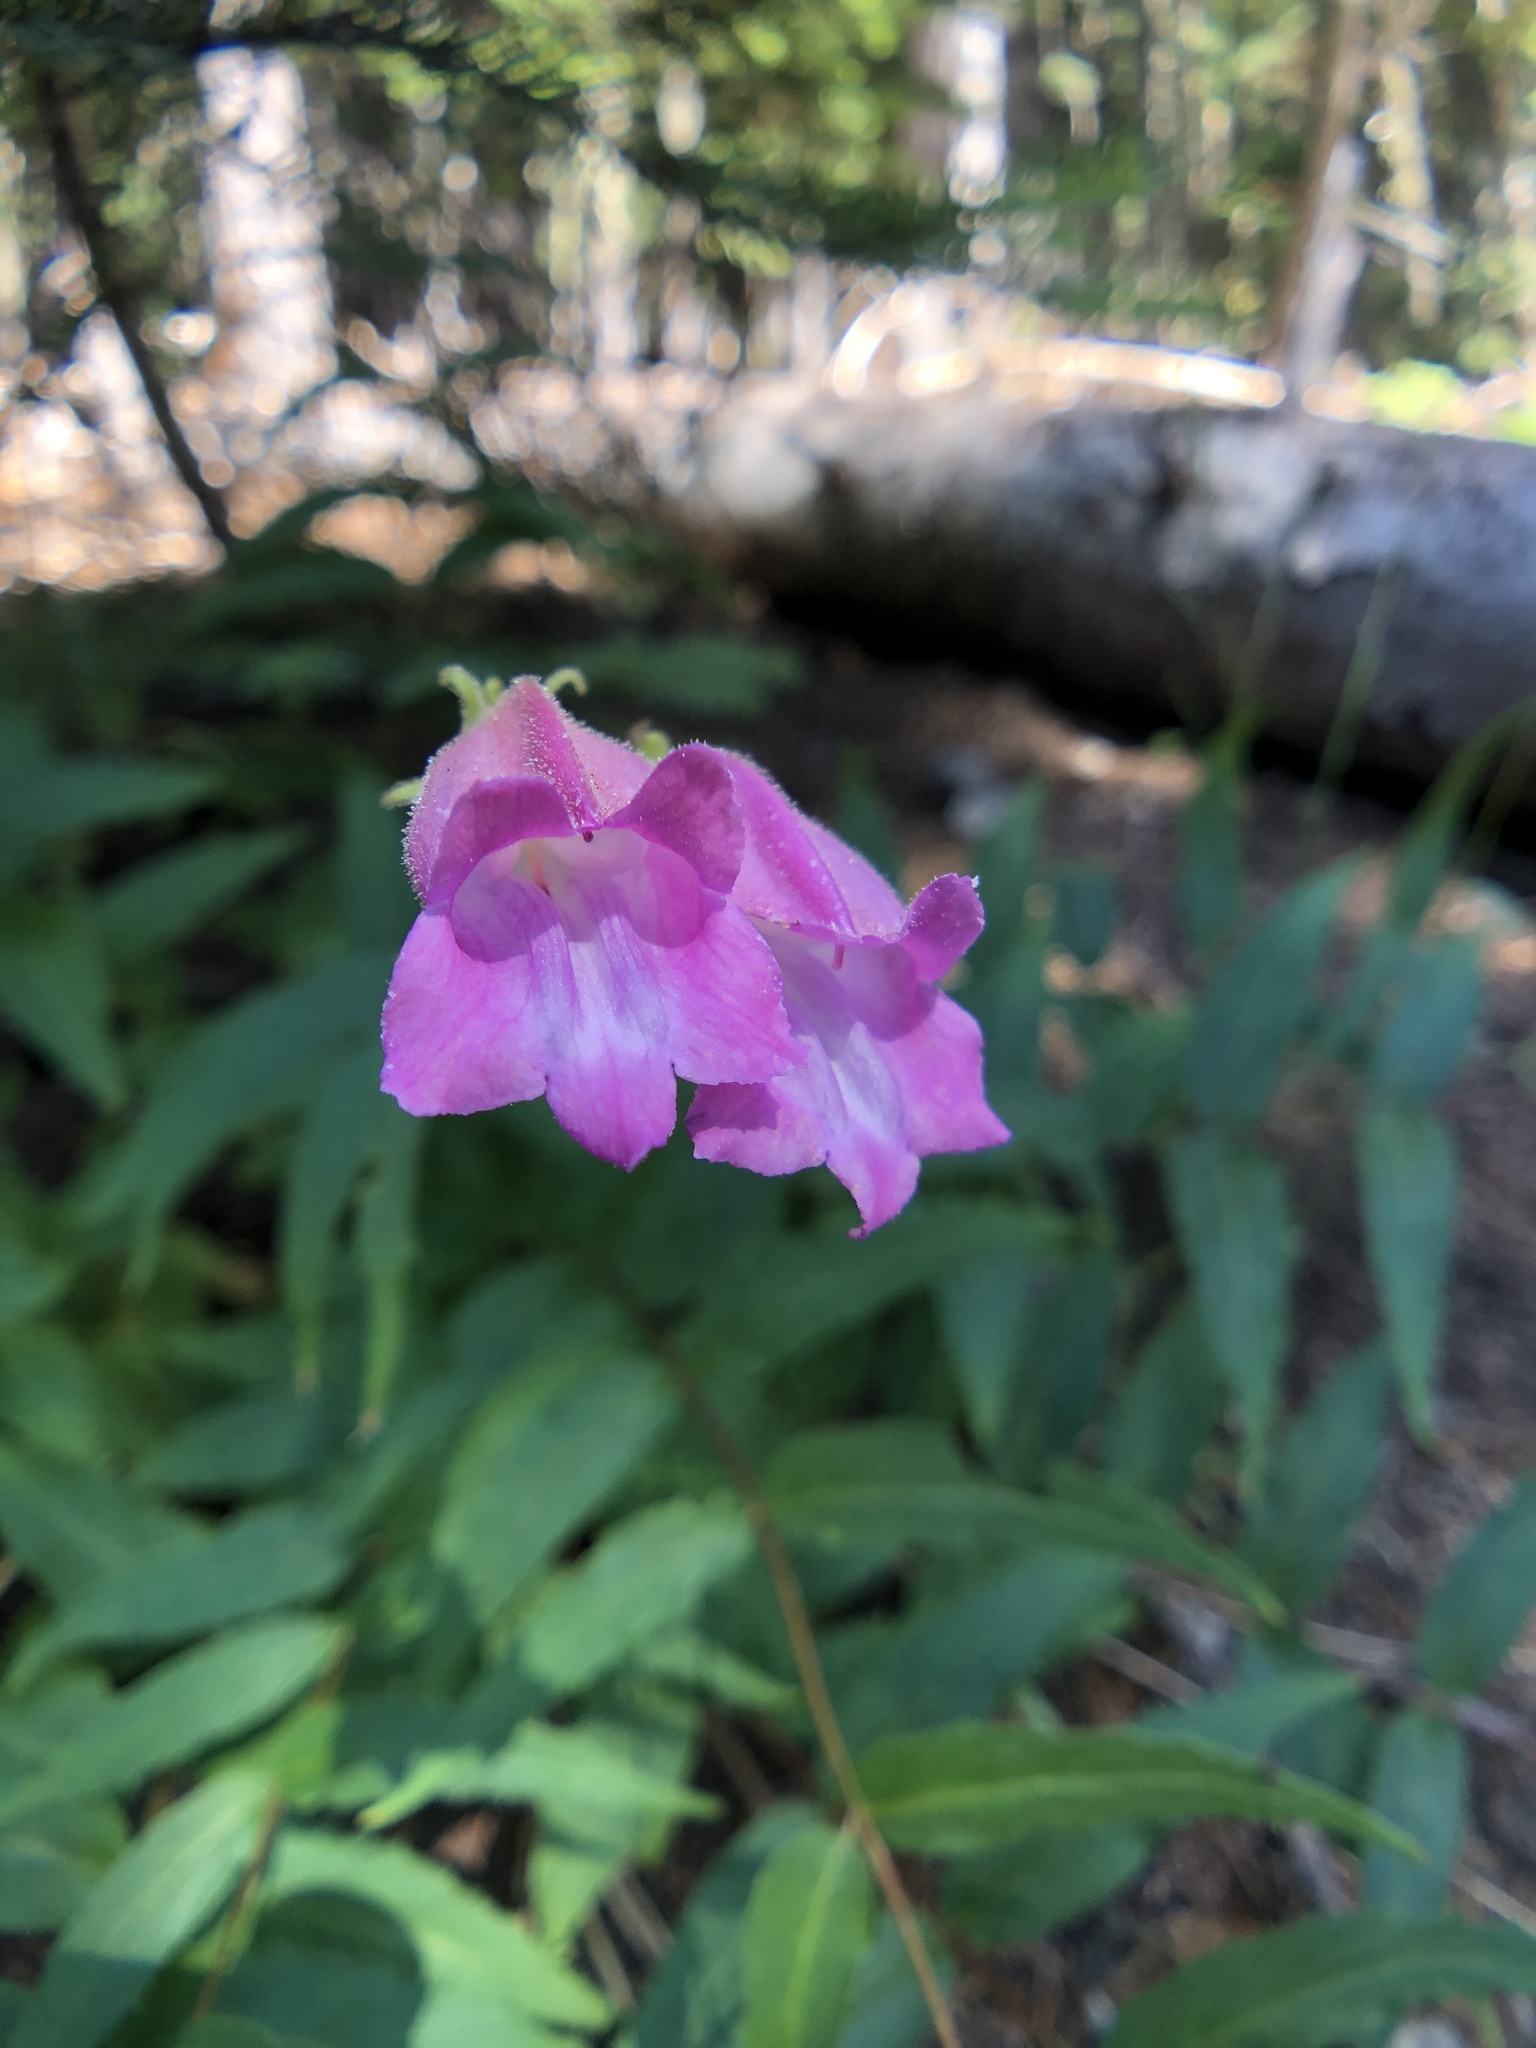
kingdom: Plantae
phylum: Tracheophyta
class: Magnoliopsida
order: Lamiales
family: Plantaginaceae
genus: Nothochelone
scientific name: Nothochelone nemorosa
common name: Woodland beardtongue
